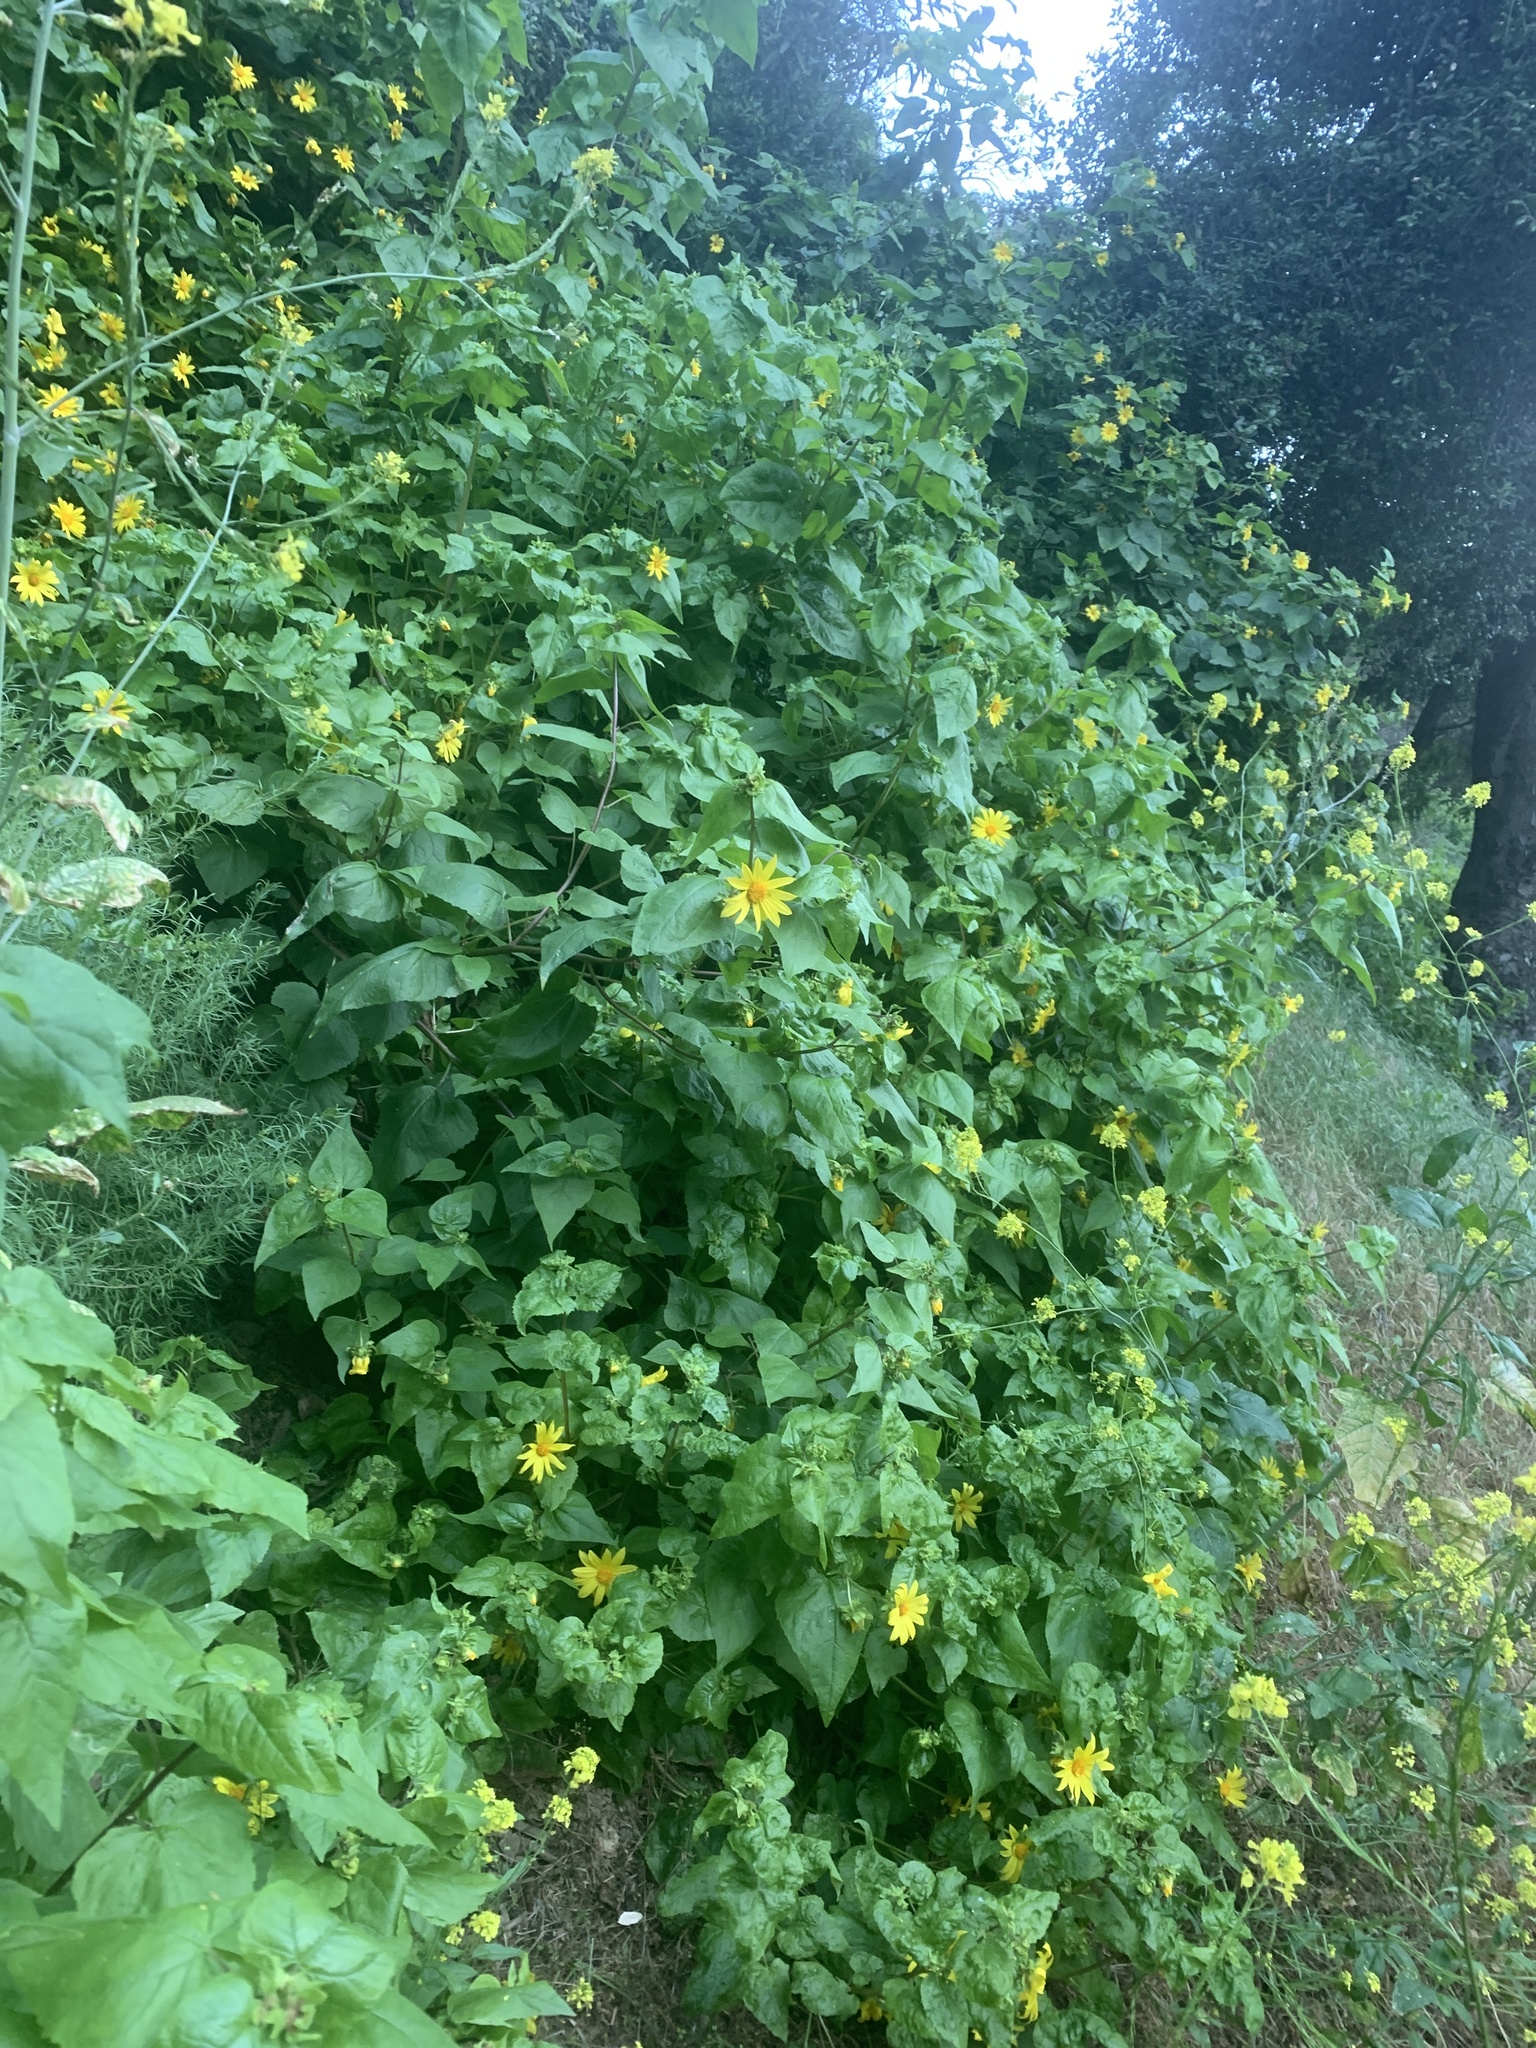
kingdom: Plantae
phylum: Tracheophyta
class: Magnoliopsida
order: Asterales
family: Asteraceae
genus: Venegasia
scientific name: Venegasia carpesioides
